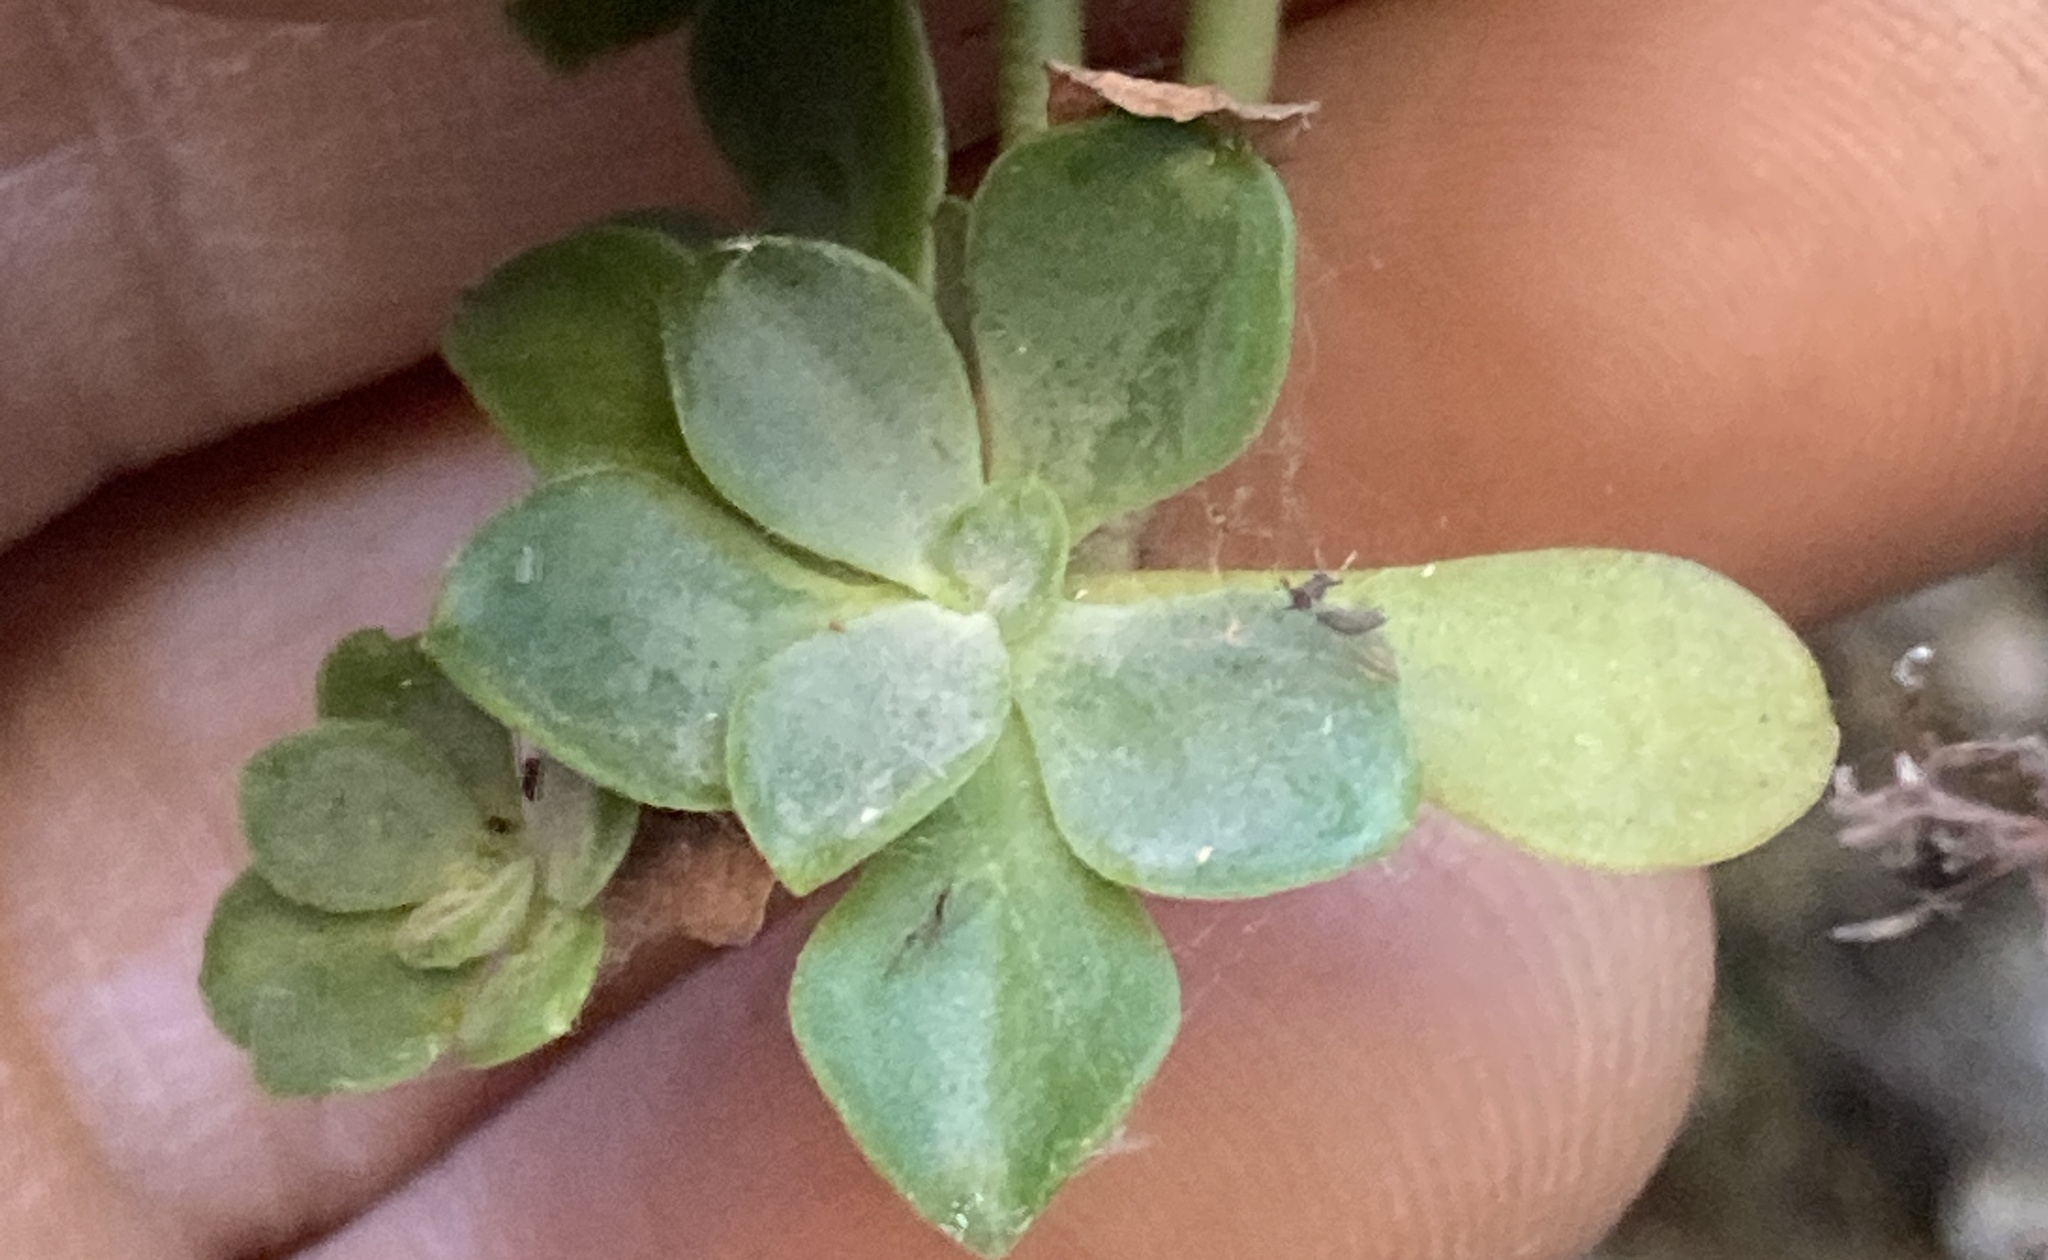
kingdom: Plantae
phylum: Tracheophyta
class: Magnoliopsida
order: Saxifragales
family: Crassulaceae
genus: Sedum
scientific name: Sedum spathulifolium
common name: Colorado stonecrop
